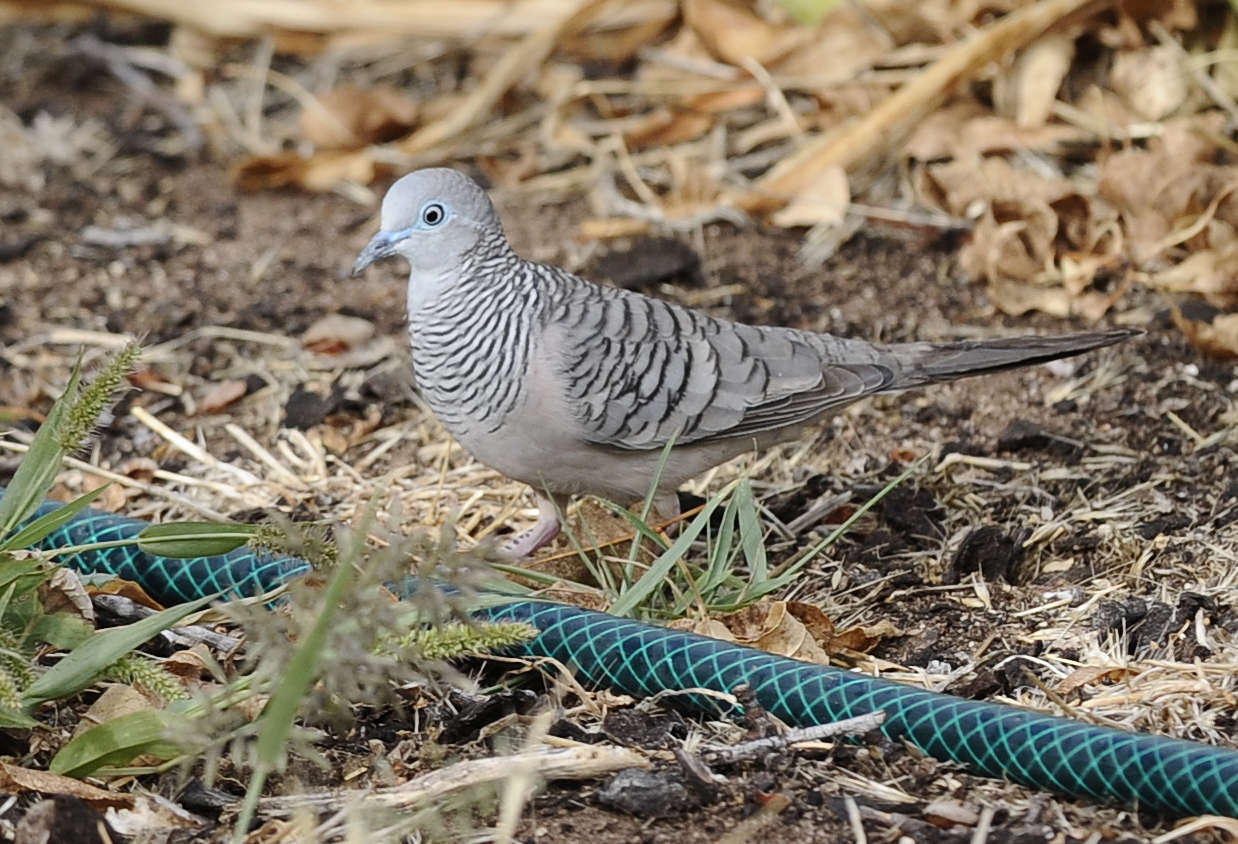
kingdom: Animalia
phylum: Chordata
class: Aves
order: Columbiformes
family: Columbidae
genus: Geopelia
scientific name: Geopelia placida
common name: Peaceful dove
